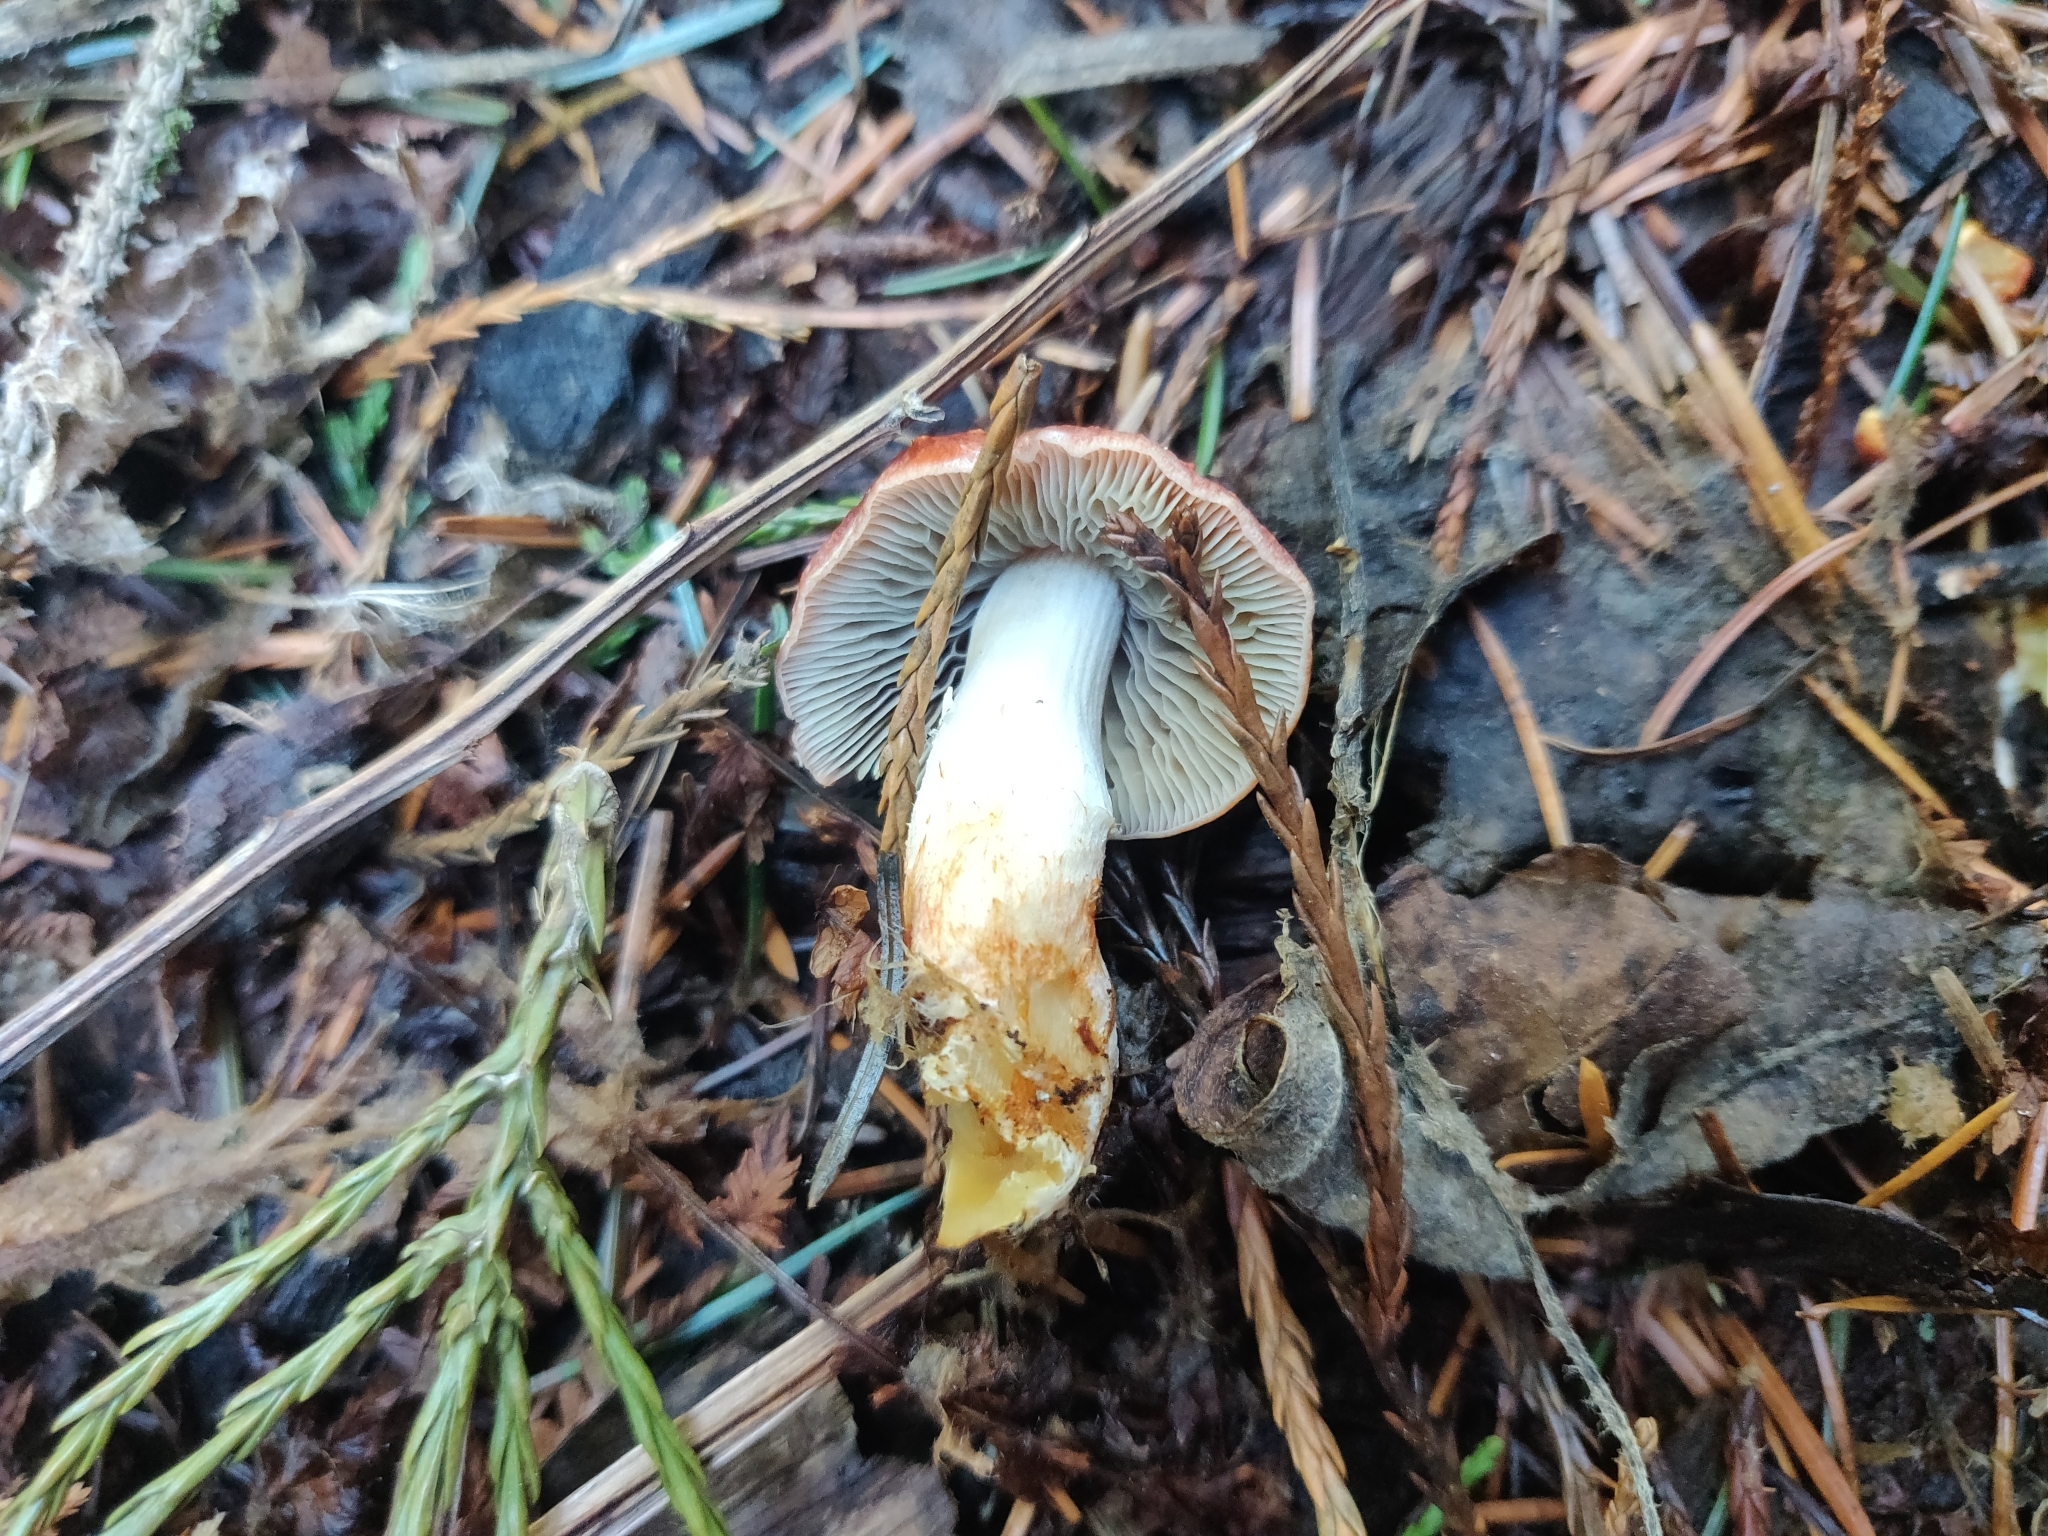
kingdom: Fungi
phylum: Basidiomycota
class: Agaricomycetes
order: Agaricales
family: Strophariaceae
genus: Leratiomyces
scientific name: Leratiomyces ceres
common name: Redlead roundhead
